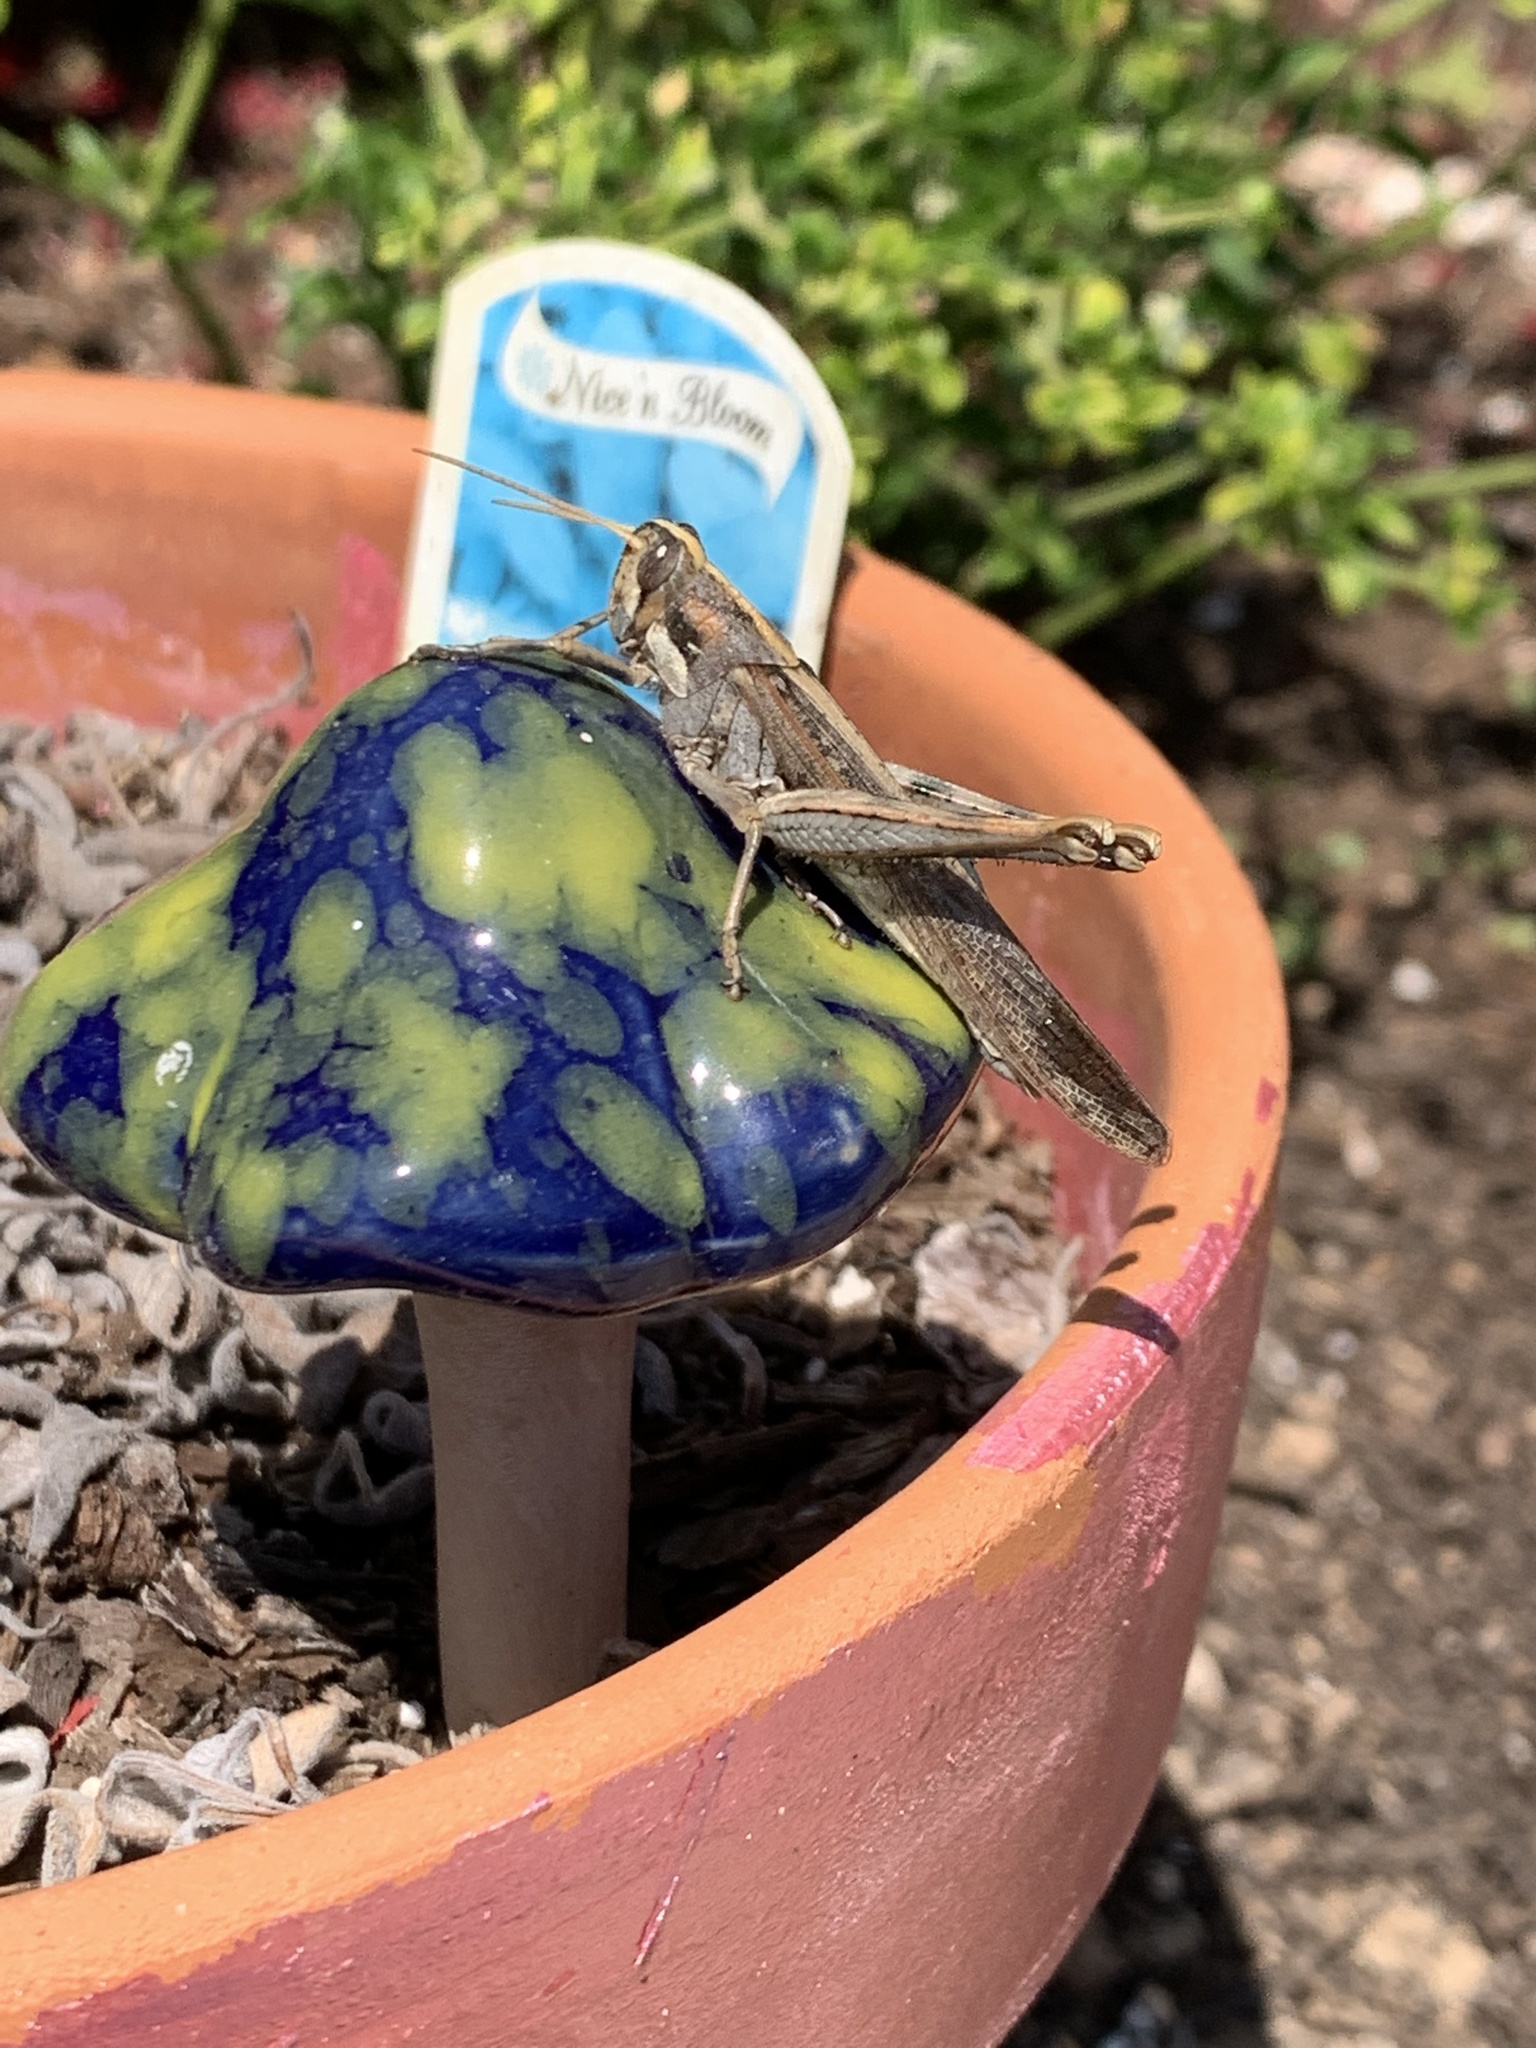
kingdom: Animalia
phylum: Arthropoda
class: Insecta
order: Orthoptera
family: Acrididae
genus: Schistocerca
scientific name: Schistocerca nitens
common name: Vagrant grasshopper
